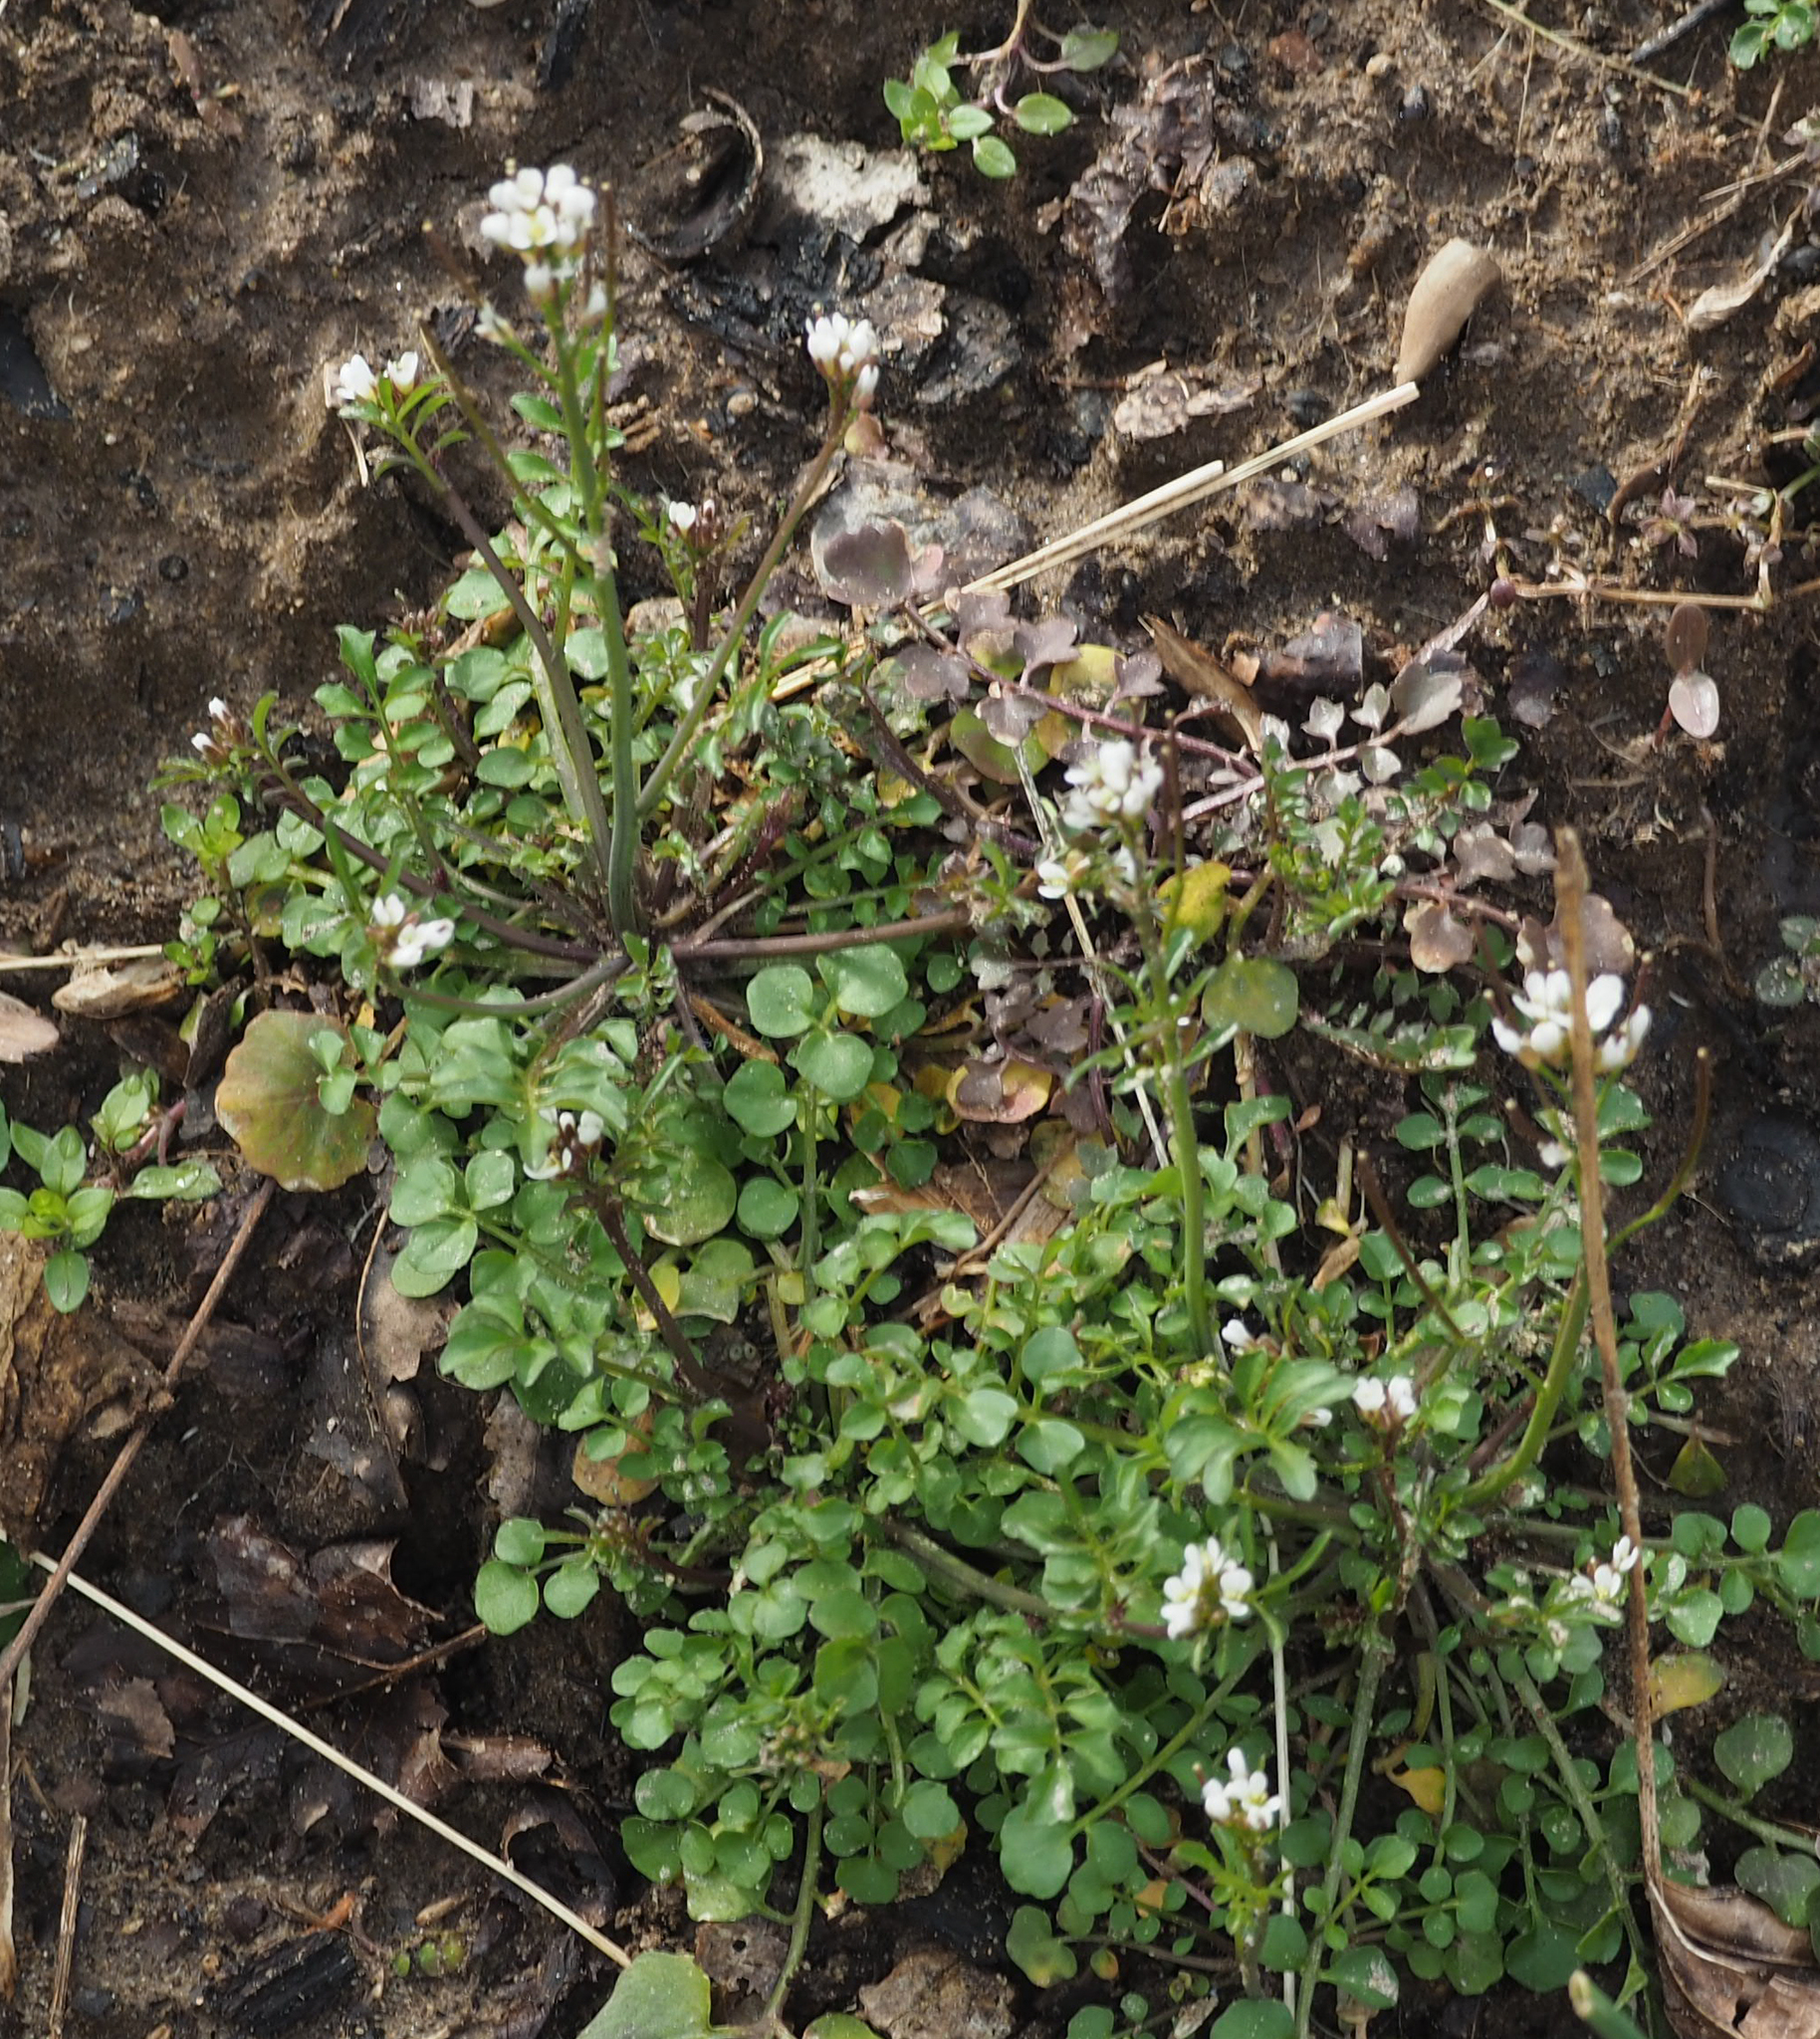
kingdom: Plantae
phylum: Tracheophyta
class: Magnoliopsida
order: Brassicales
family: Brassicaceae
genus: Cardamine
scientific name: Cardamine hirsuta
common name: Hairy bittercress
